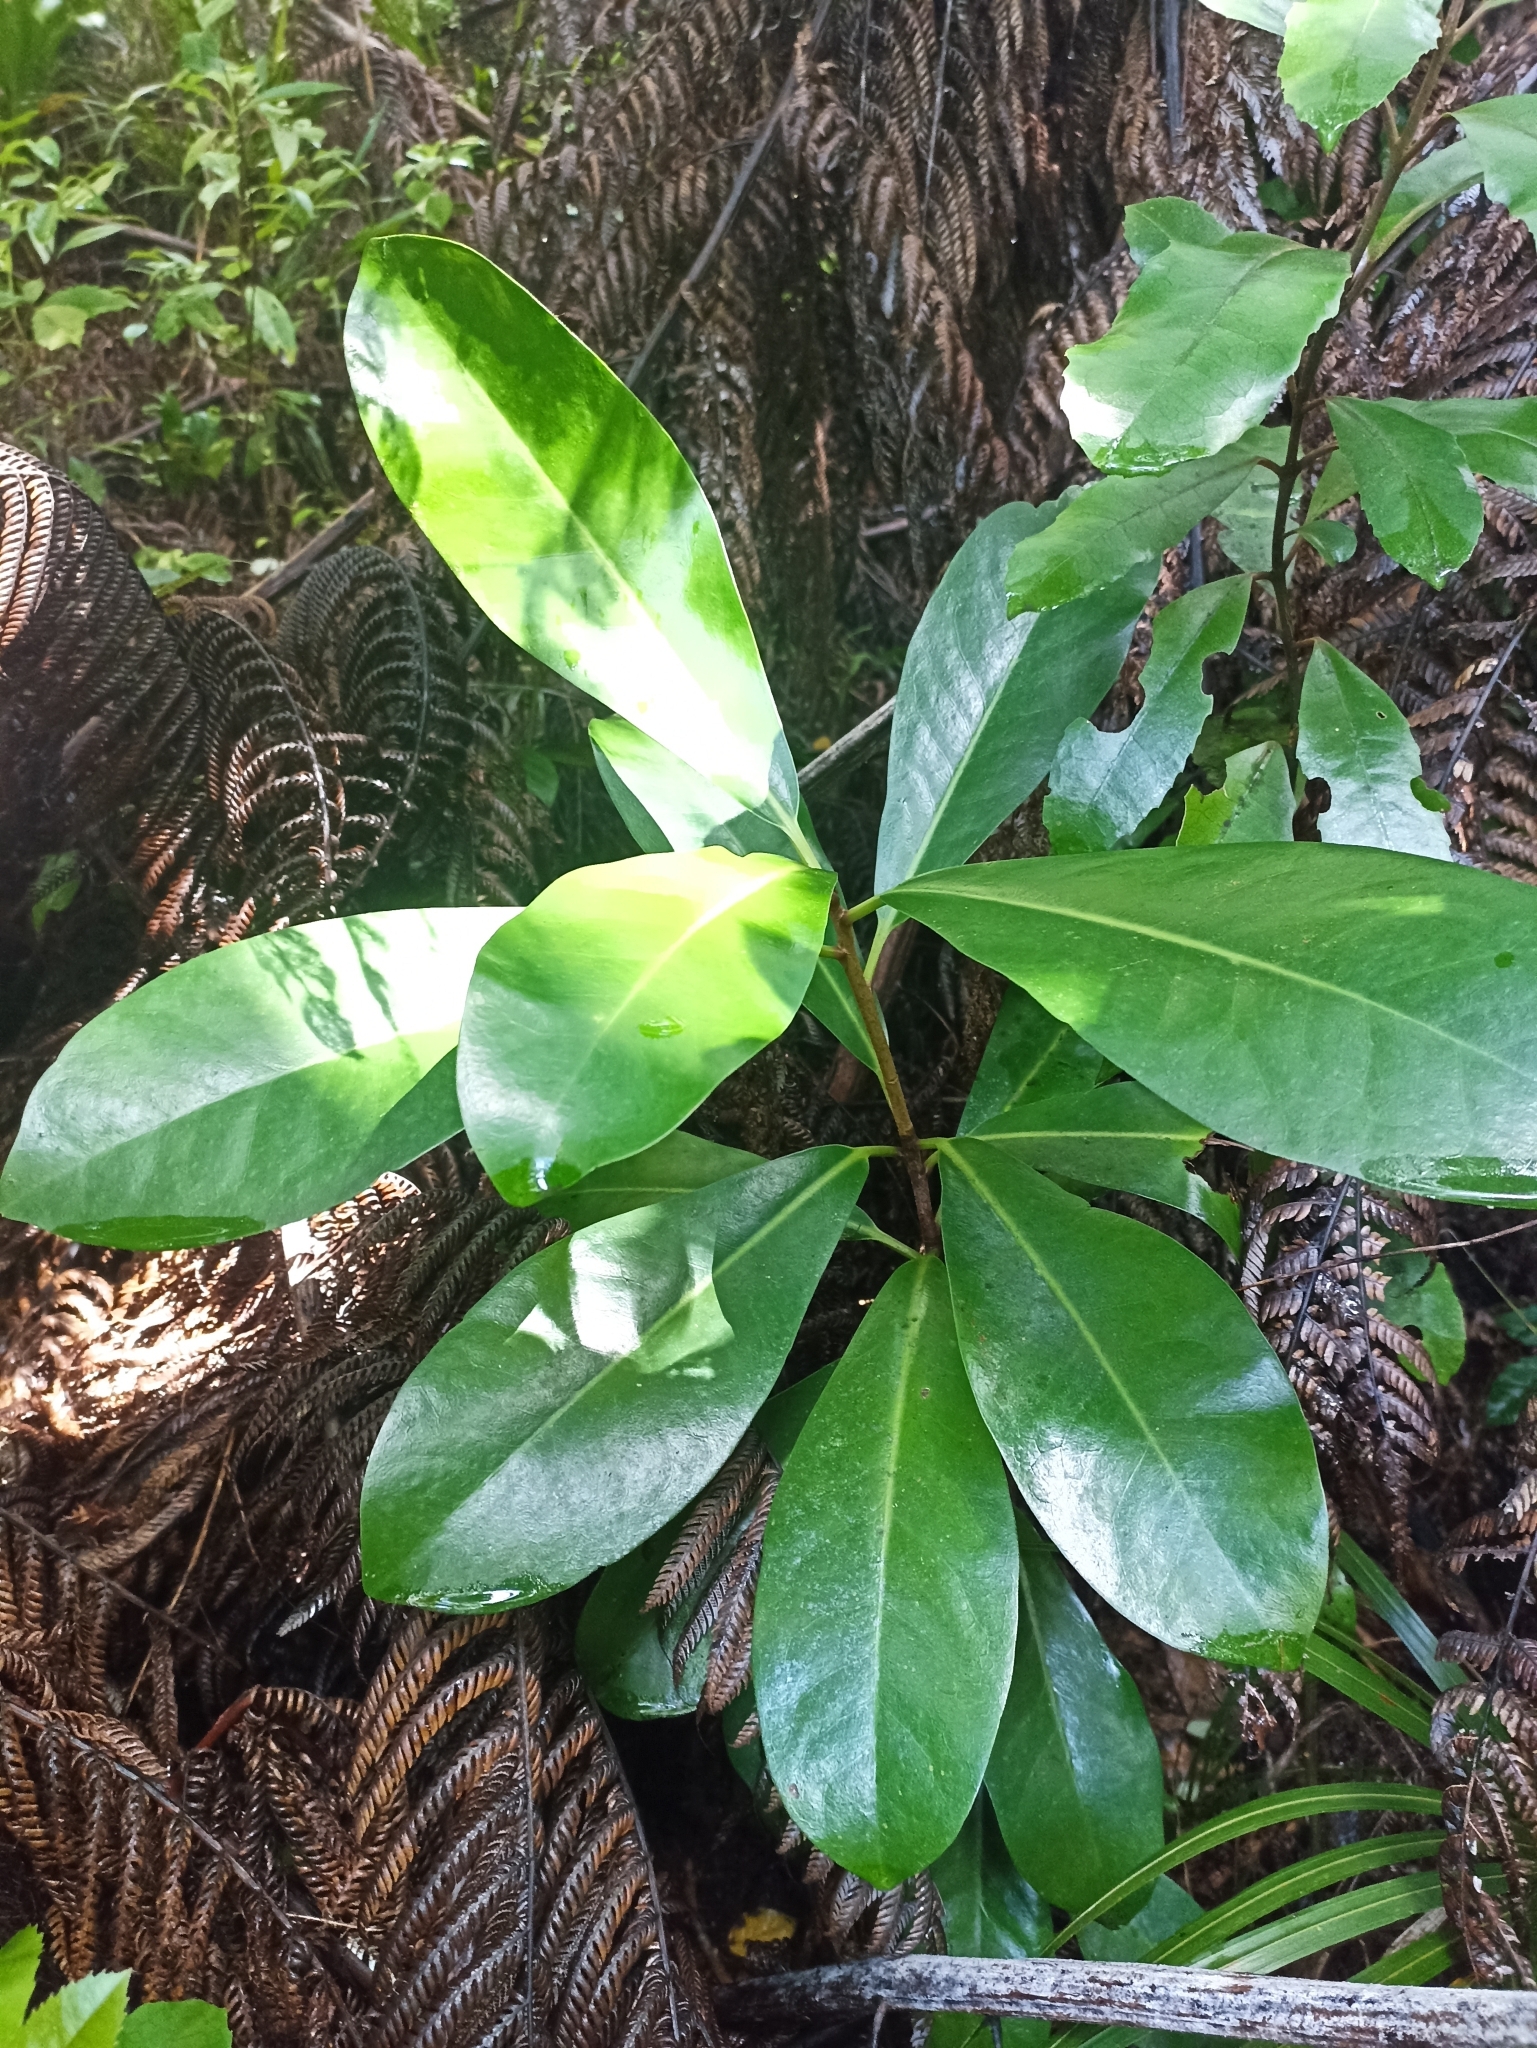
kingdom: Plantae
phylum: Tracheophyta
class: Magnoliopsida
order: Cucurbitales
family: Corynocarpaceae
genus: Corynocarpus
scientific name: Corynocarpus laevigatus
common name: New zealand laurel
